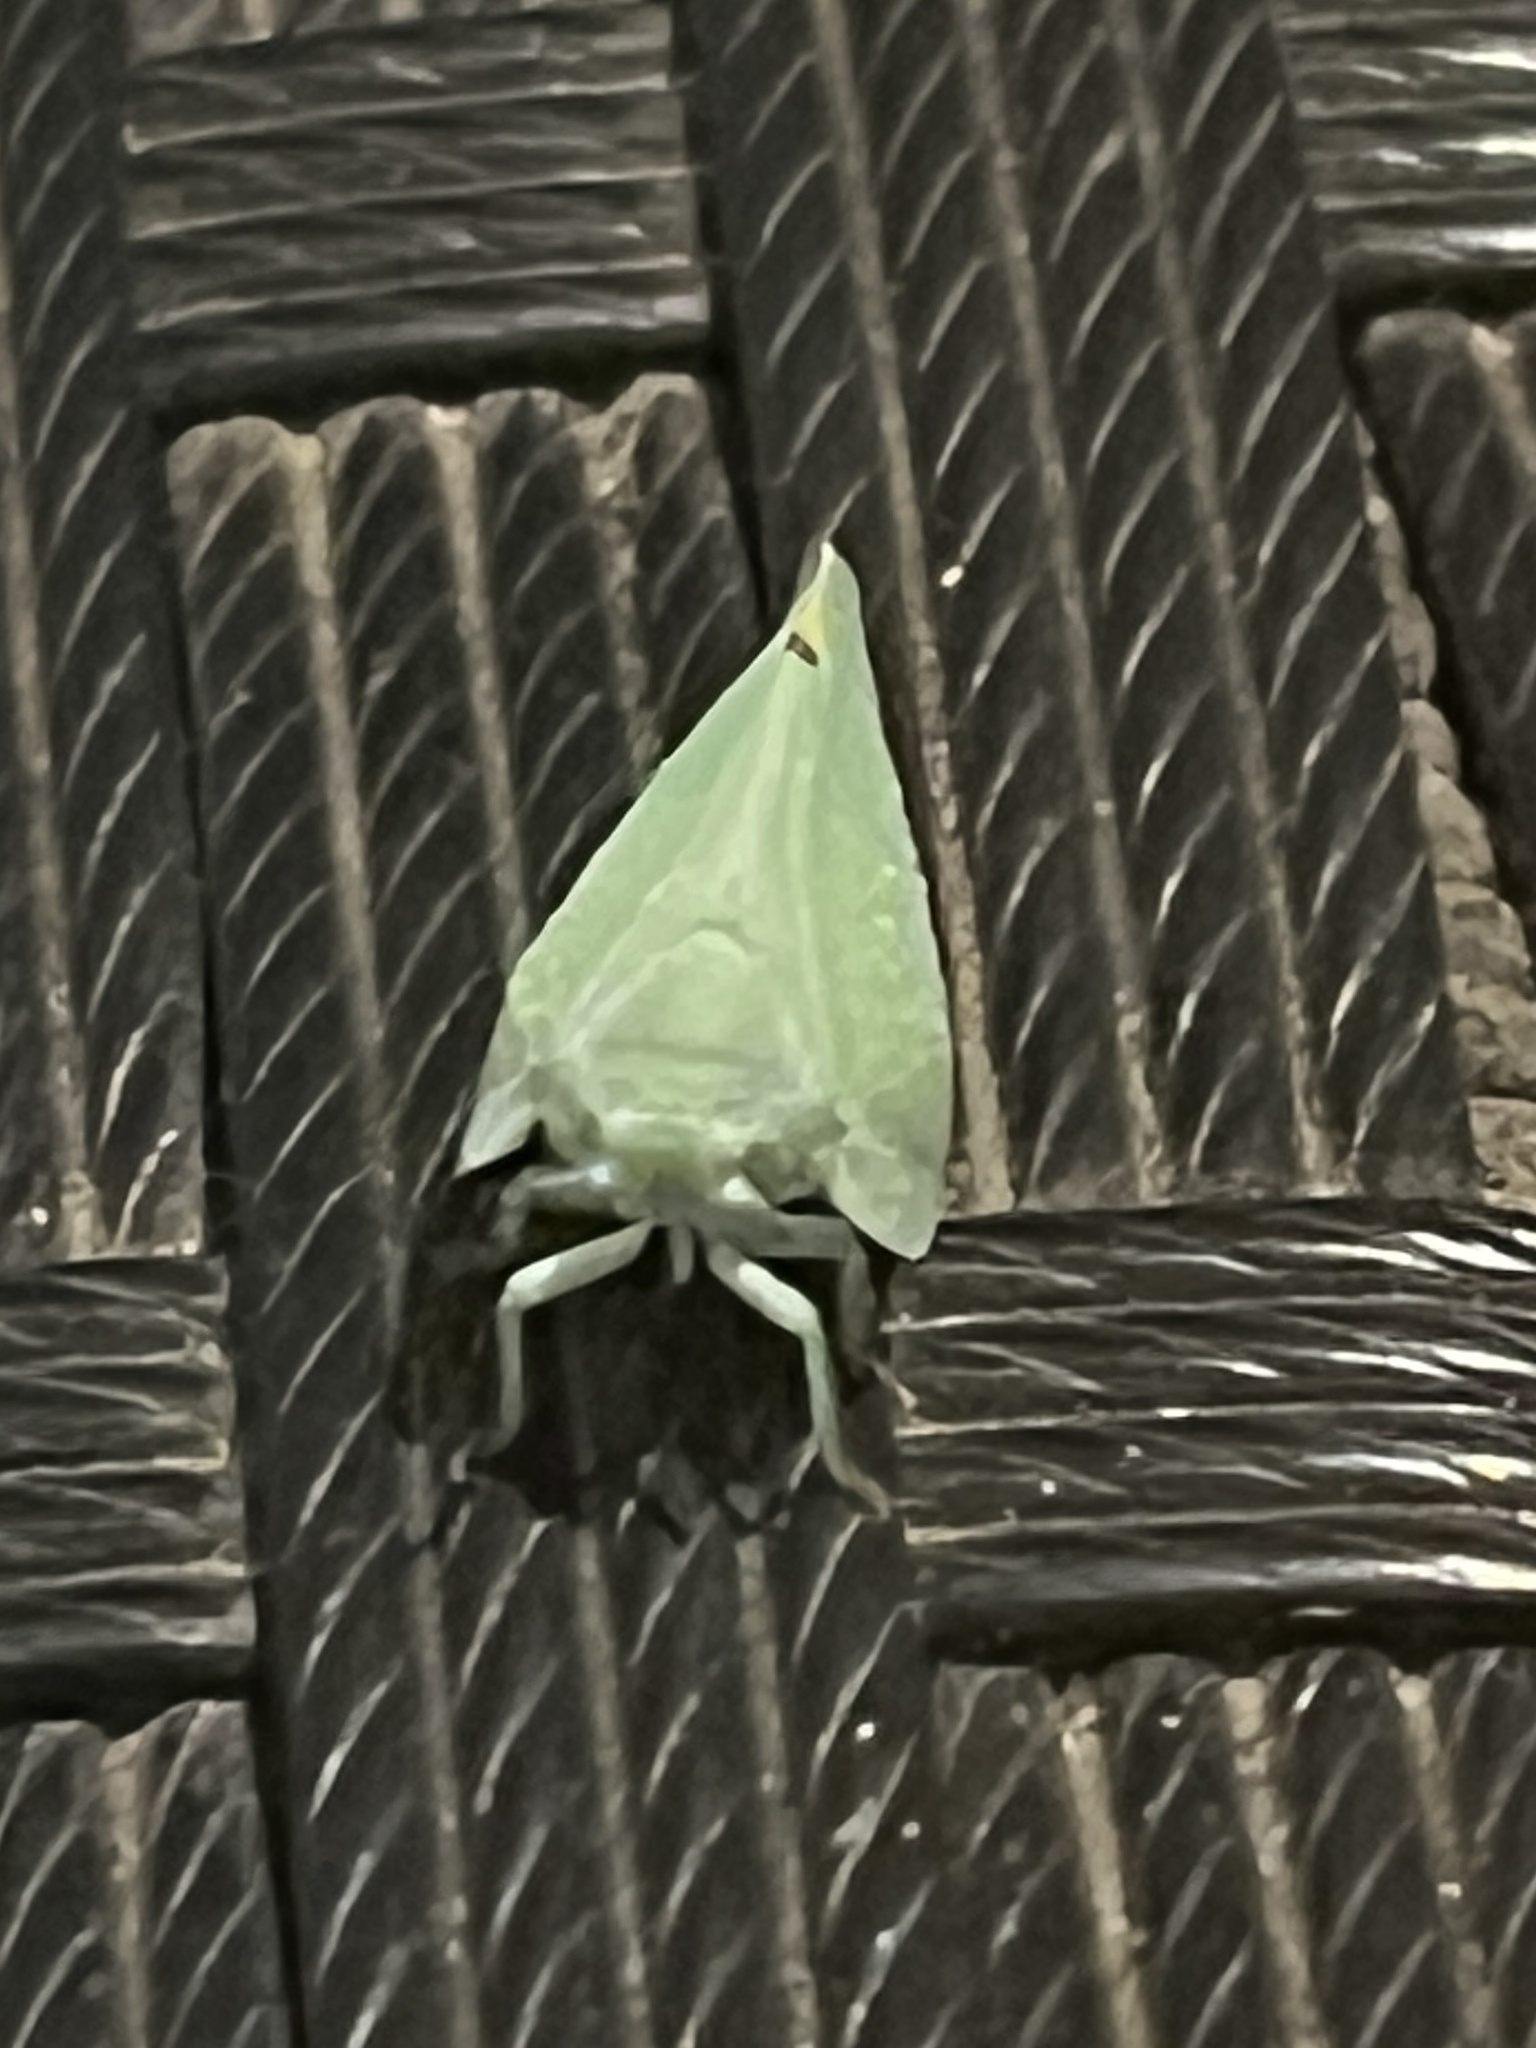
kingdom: Animalia
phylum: Arthropoda
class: Insecta
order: Hemiptera
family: Flatidae
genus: Dalapax
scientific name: Dalapax postica
